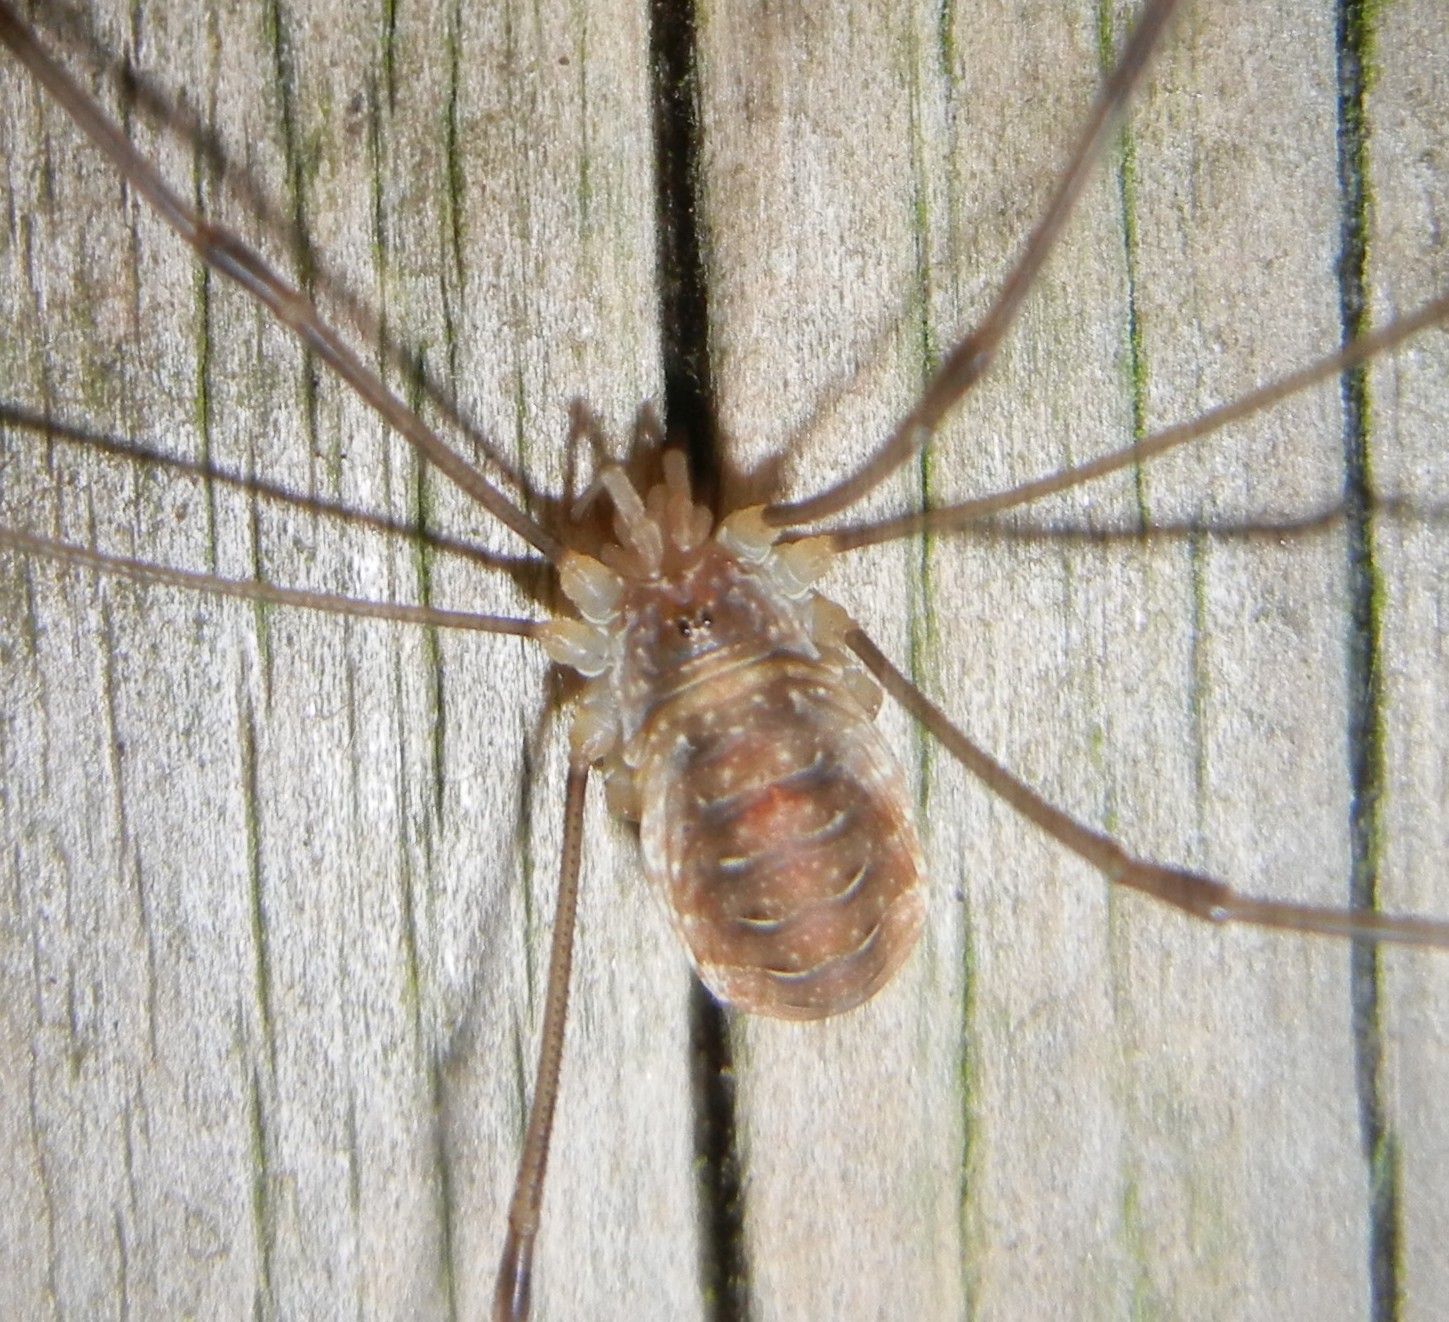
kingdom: Animalia
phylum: Arthropoda
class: Arachnida
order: Opiliones
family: Phalangiidae
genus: Opilio
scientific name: Opilio canestrinii
